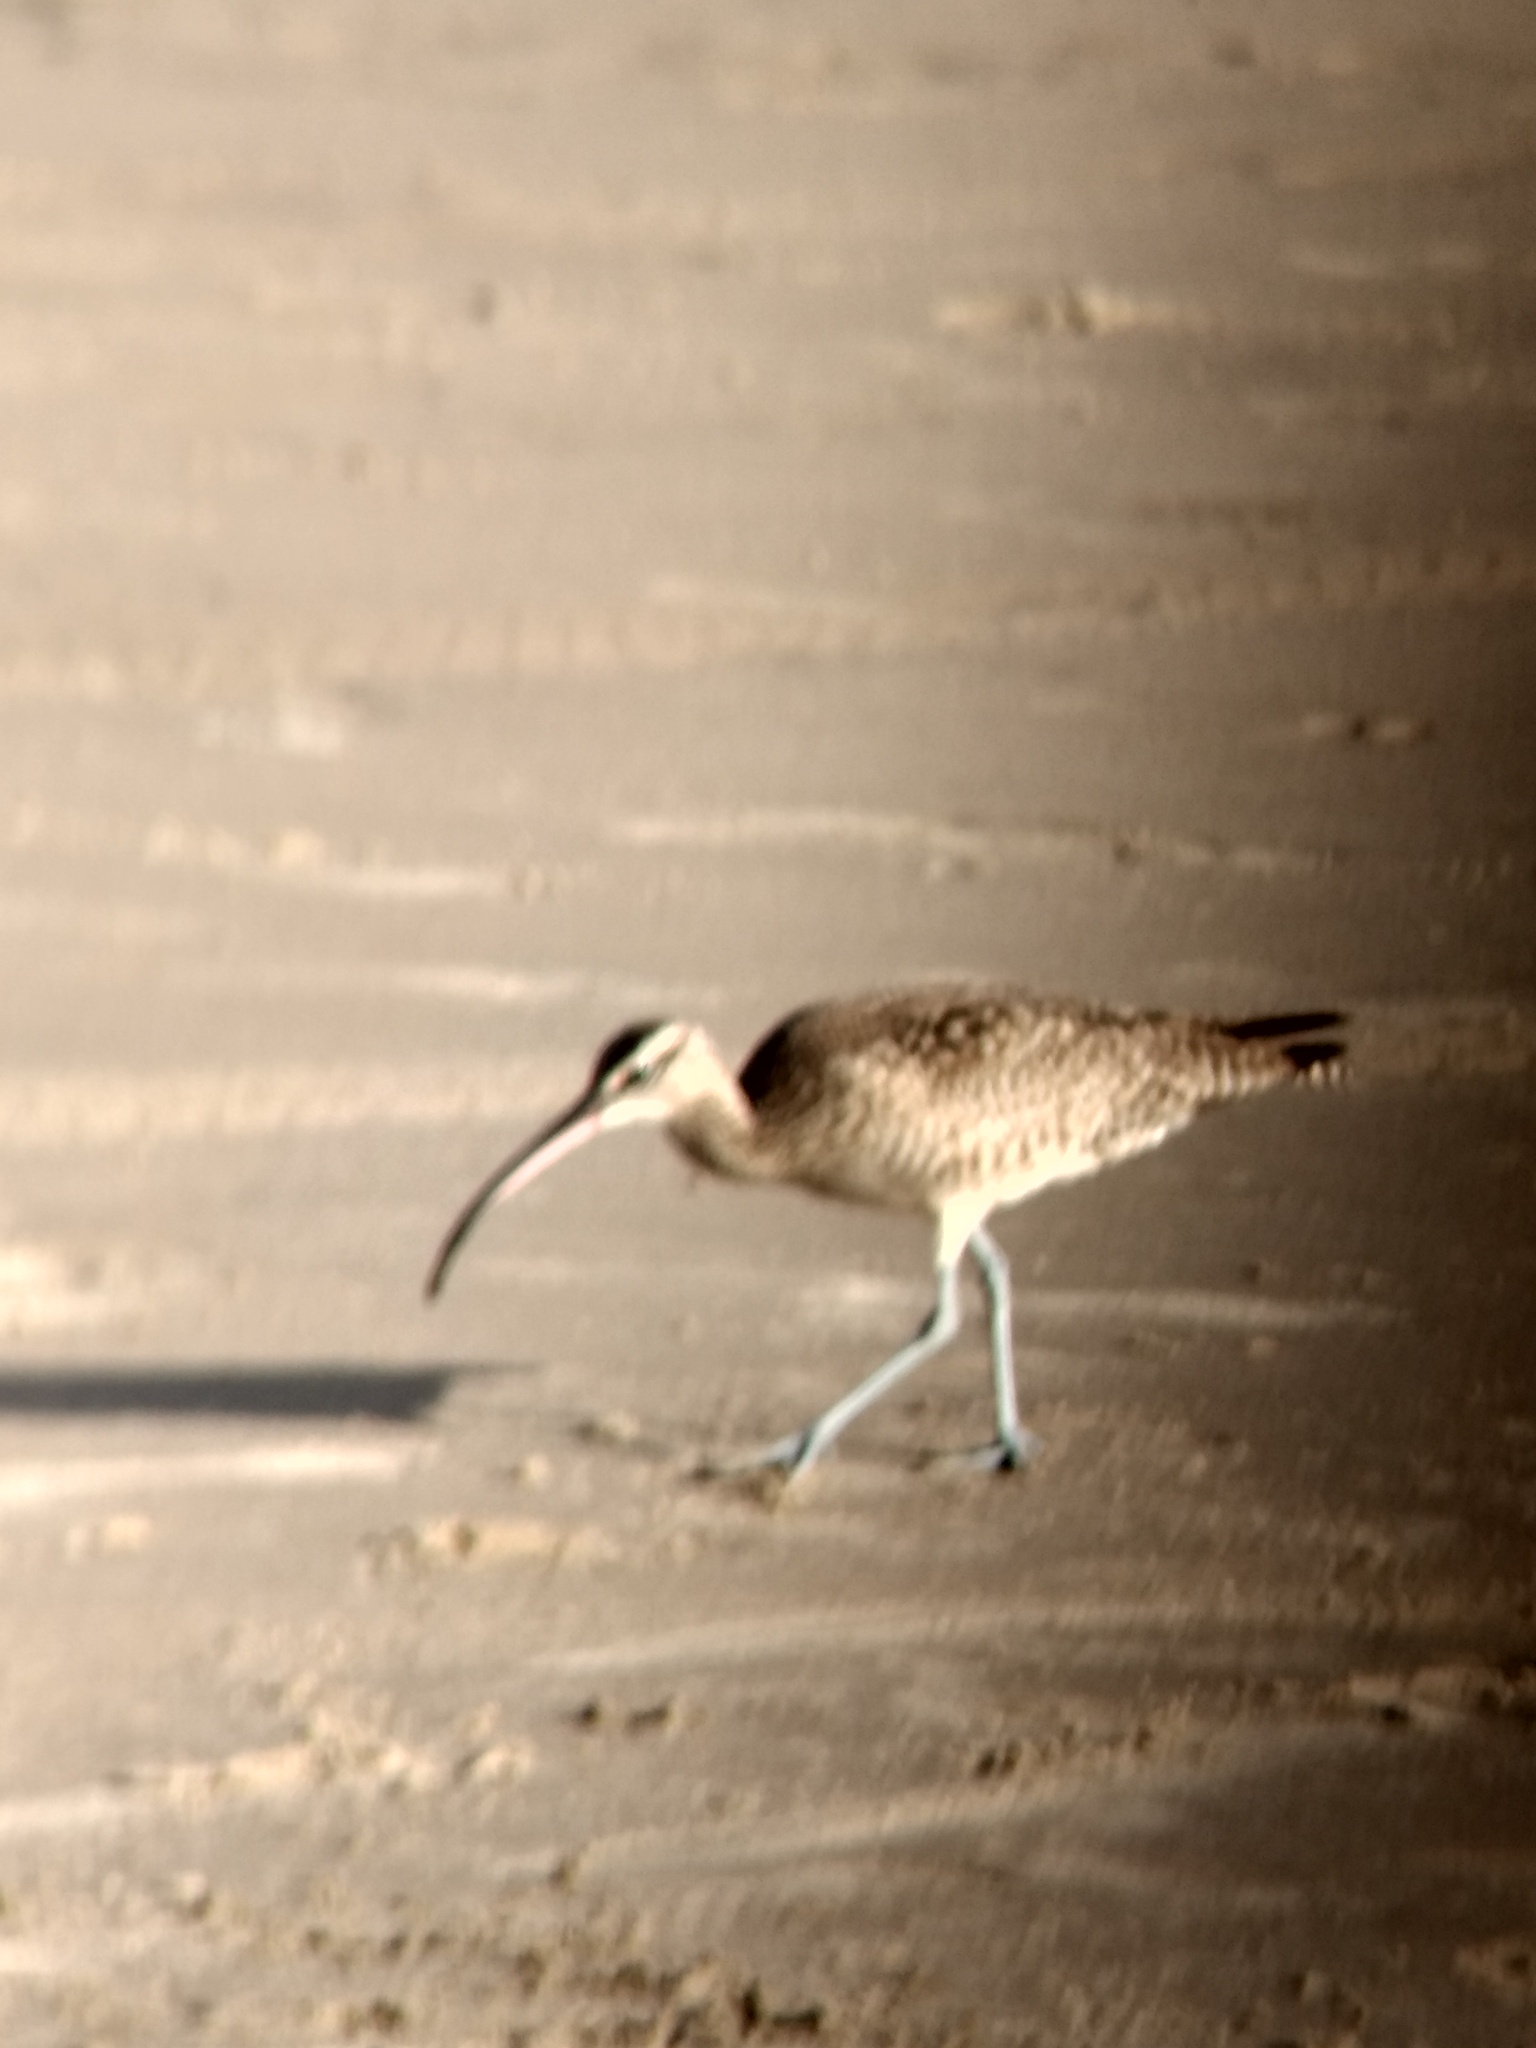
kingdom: Animalia
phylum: Chordata
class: Aves
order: Charadriiformes
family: Scolopacidae
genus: Numenius
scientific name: Numenius phaeopus
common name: Whimbrel
